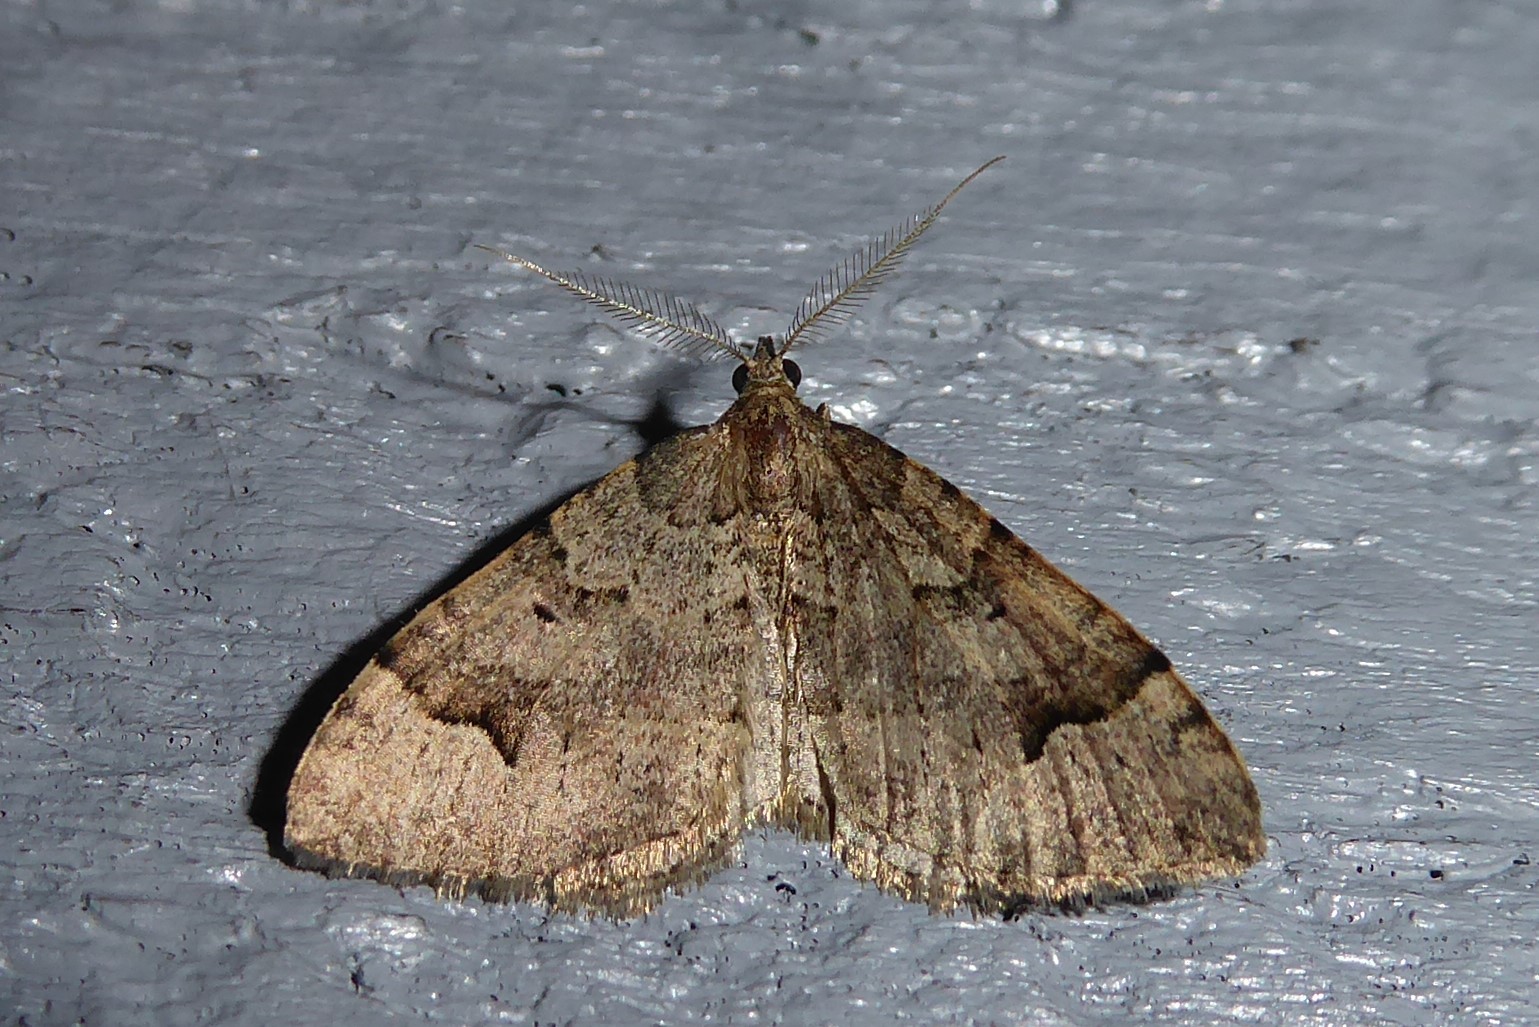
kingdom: Animalia
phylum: Arthropoda
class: Insecta
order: Lepidoptera
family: Geometridae
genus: Epyaxa
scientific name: Epyaxa rosearia
